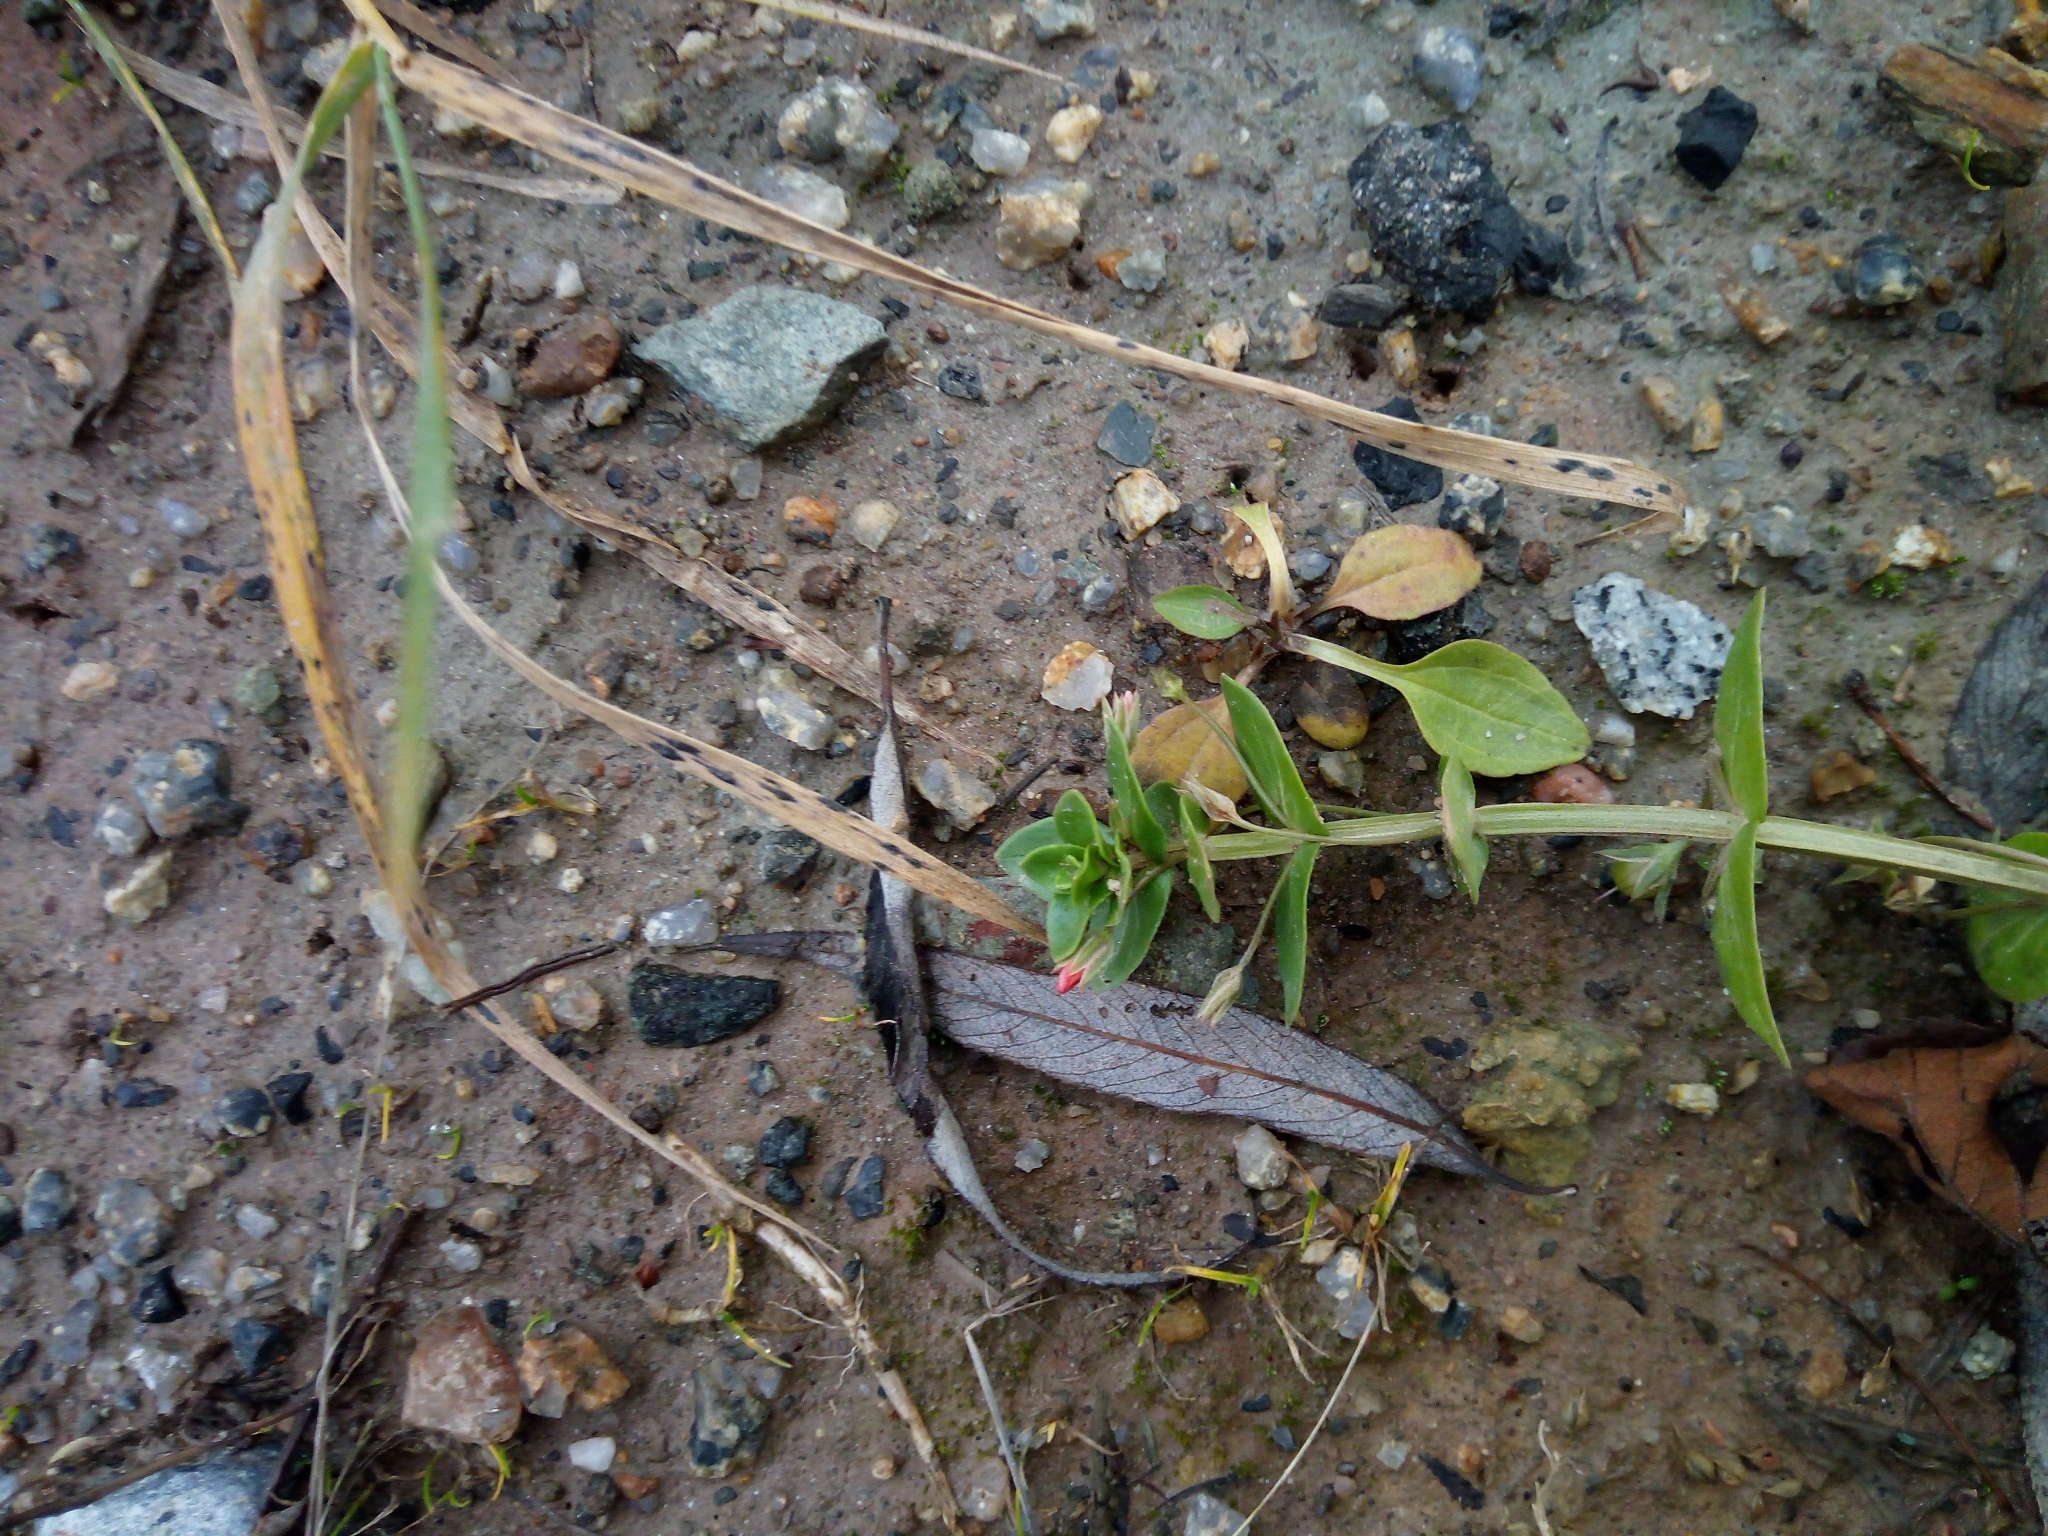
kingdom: Plantae
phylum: Tracheophyta
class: Magnoliopsida
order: Ericales
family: Primulaceae
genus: Lysimachia
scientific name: Lysimachia arvensis
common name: Scarlet pimpernel
